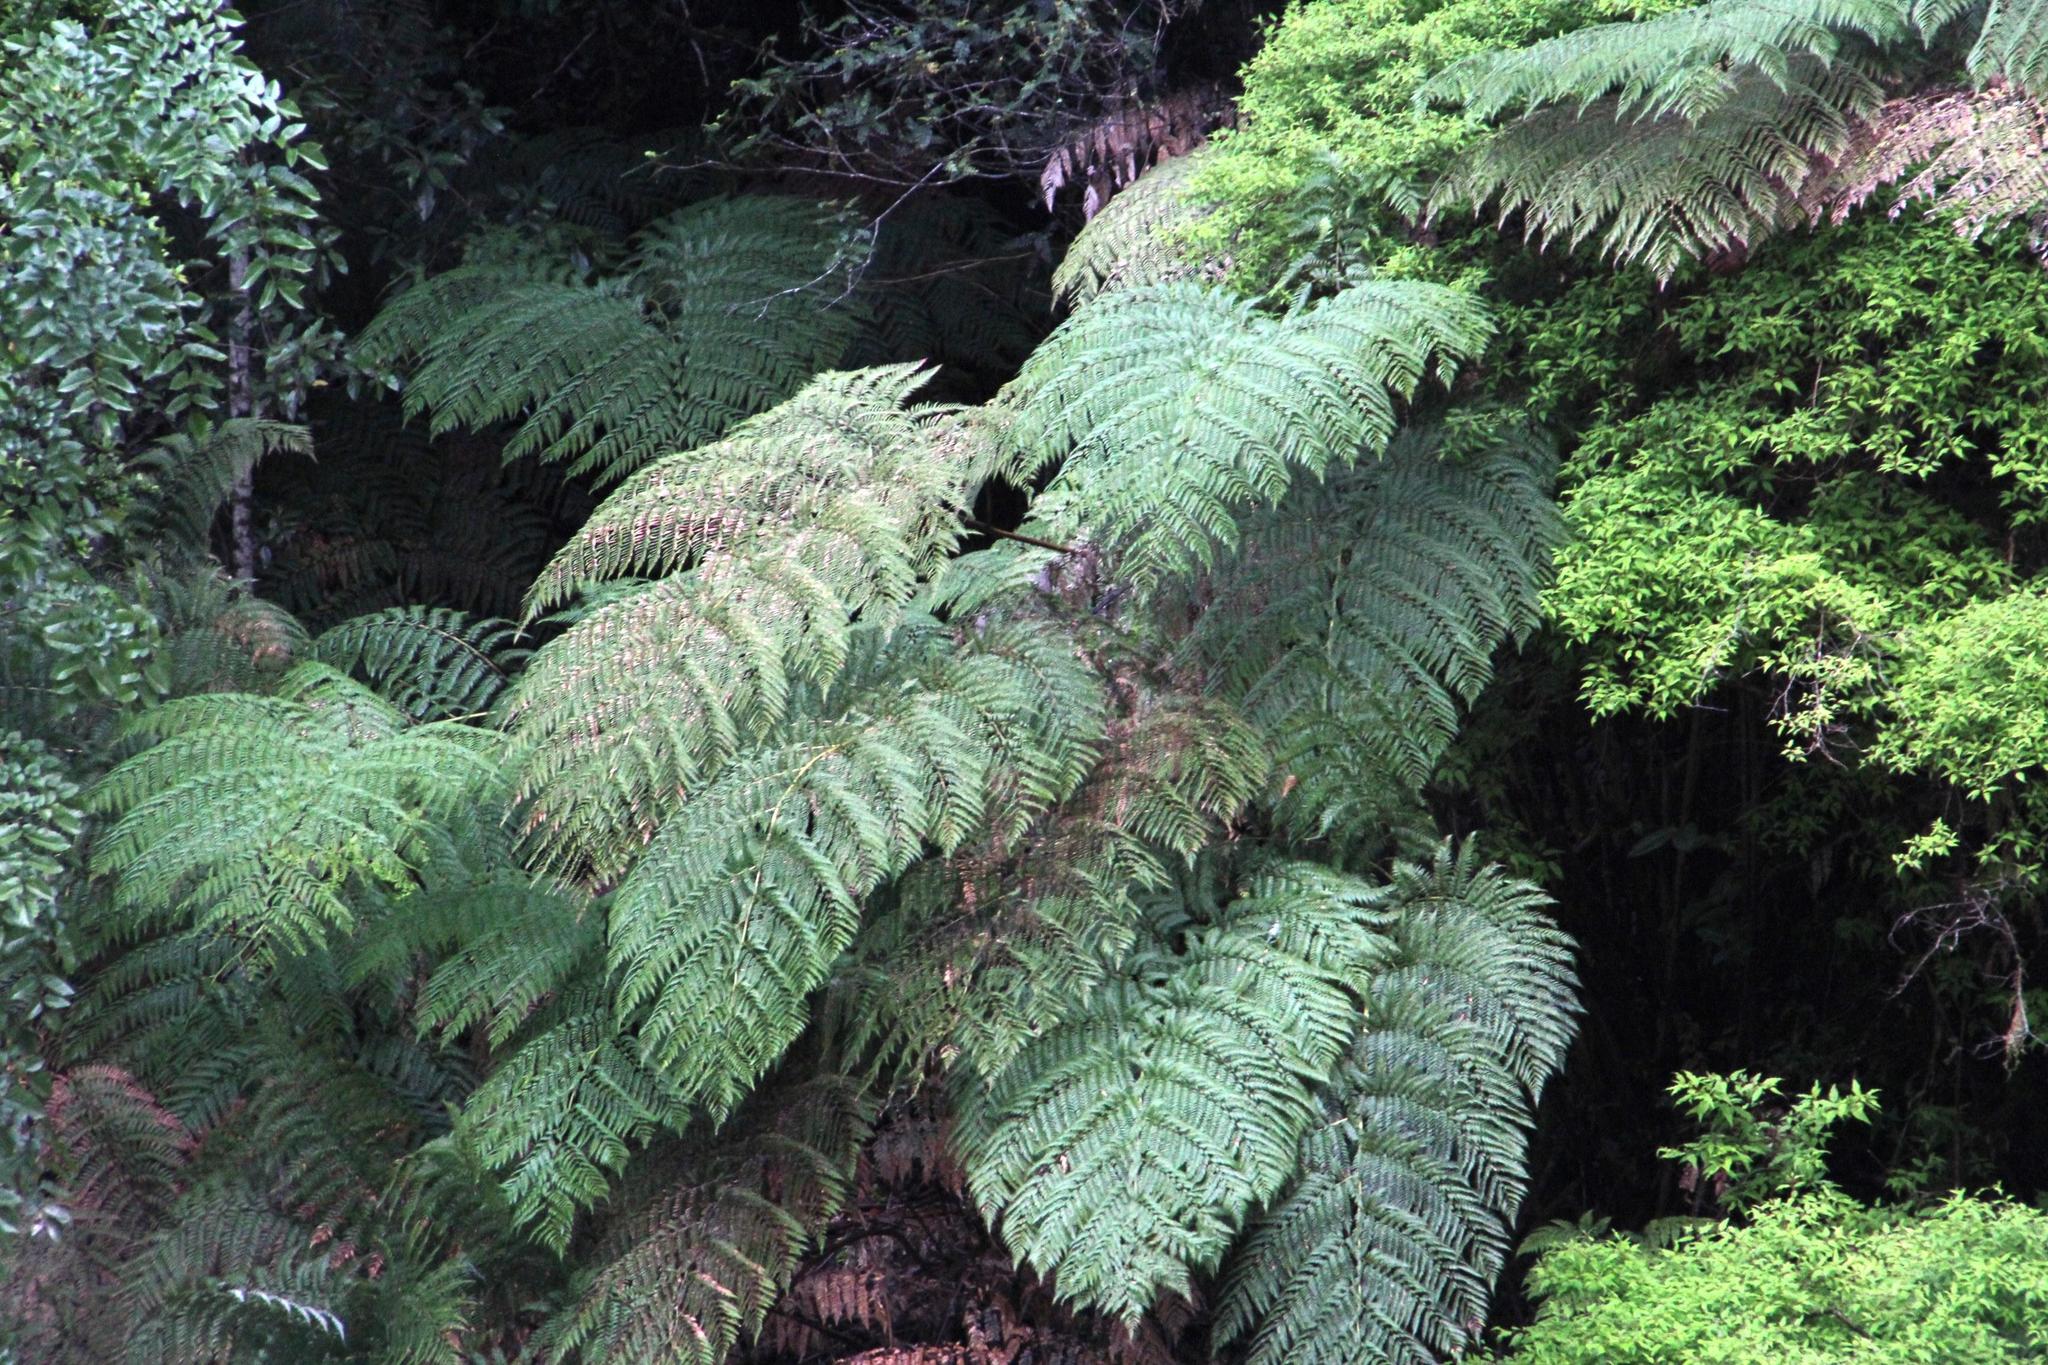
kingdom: Plantae
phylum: Tracheophyta
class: Polypodiopsida
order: Cyatheales
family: Dicksoniaceae
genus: Lophosoria
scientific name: Lophosoria quadripinnata
